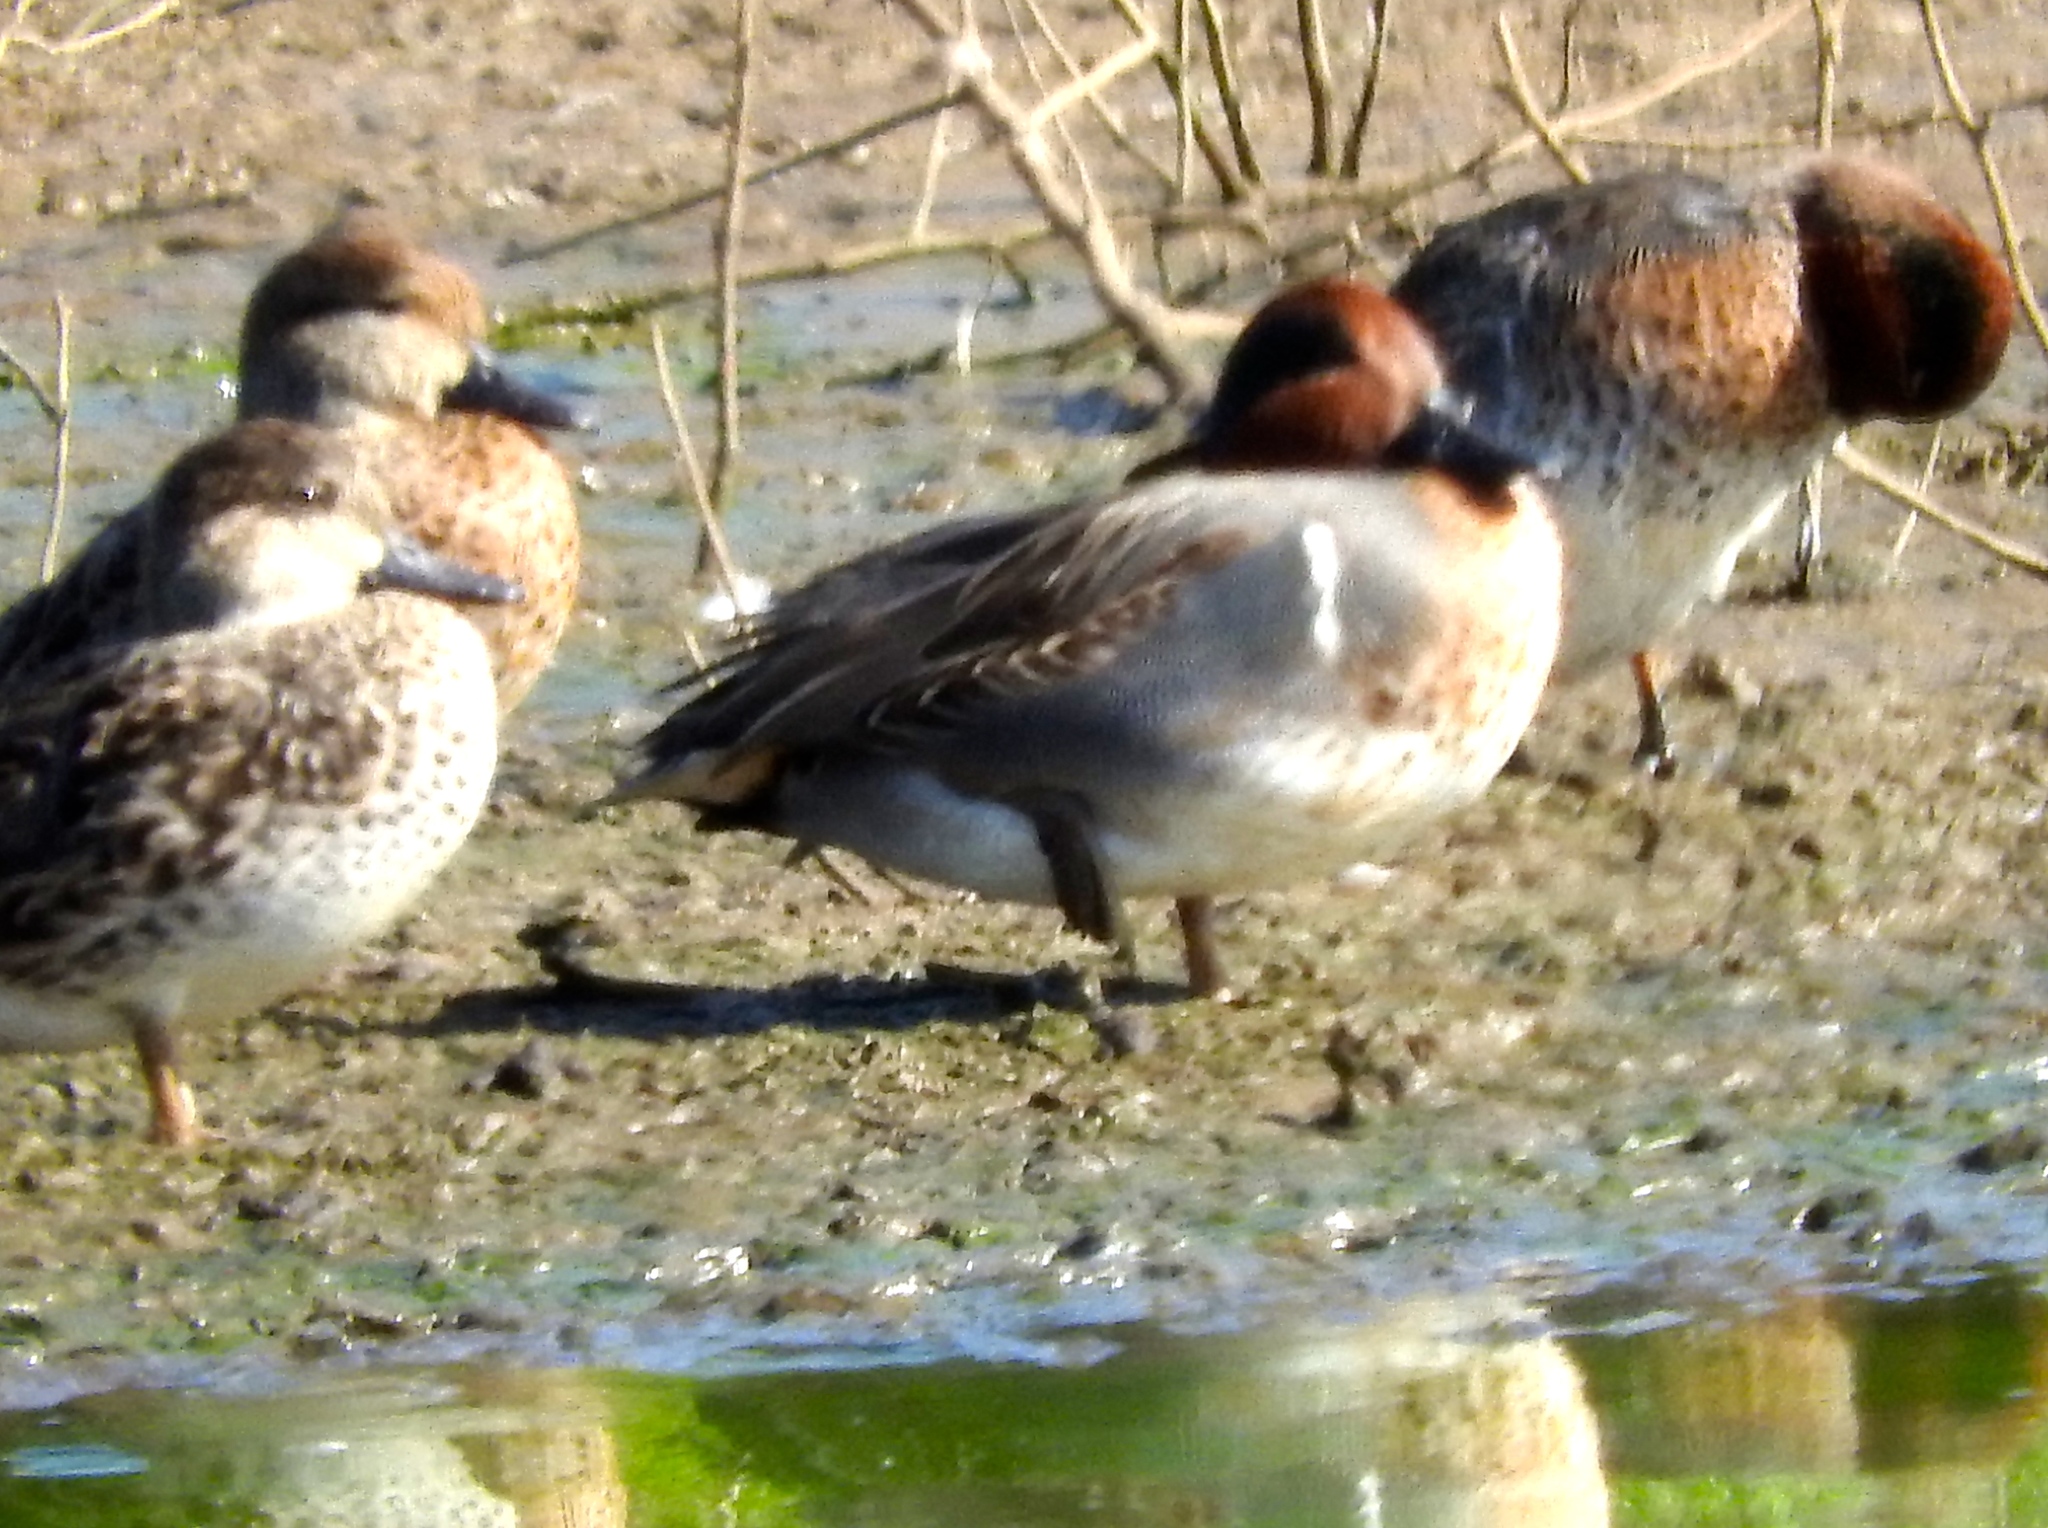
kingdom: Animalia
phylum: Chordata
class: Aves
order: Anseriformes
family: Anatidae
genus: Anas
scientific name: Anas crecca
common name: Eurasian teal
